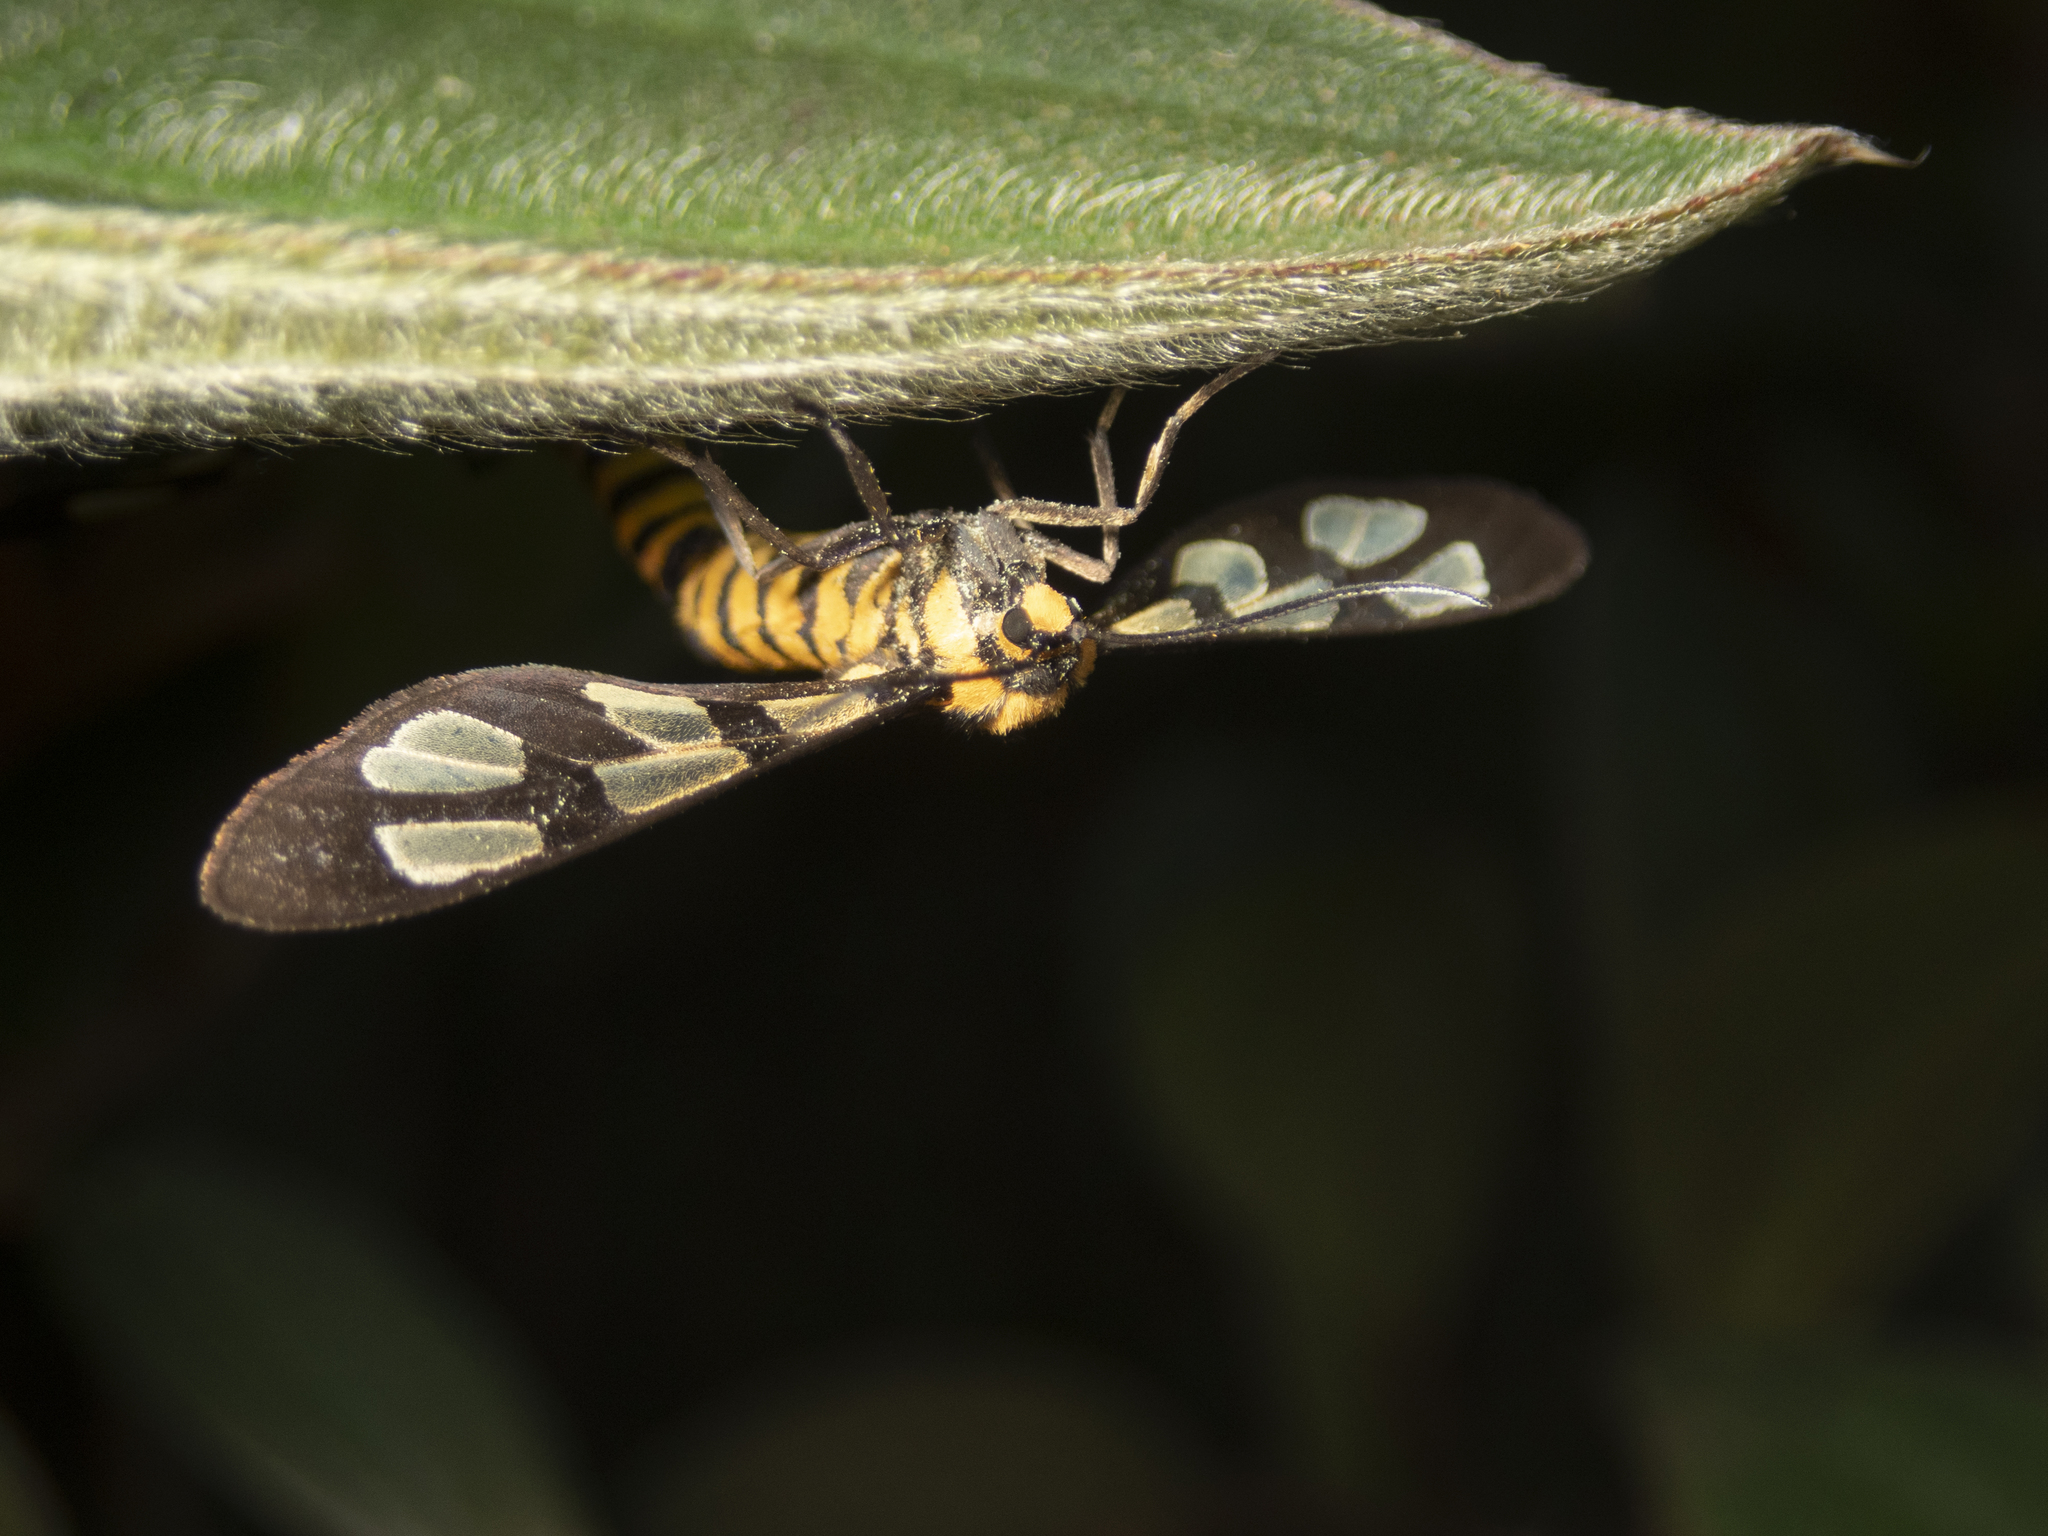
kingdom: Animalia
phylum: Arthropoda
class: Insecta
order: Lepidoptera
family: Erebidae
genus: Amata
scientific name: Amata lucerna
